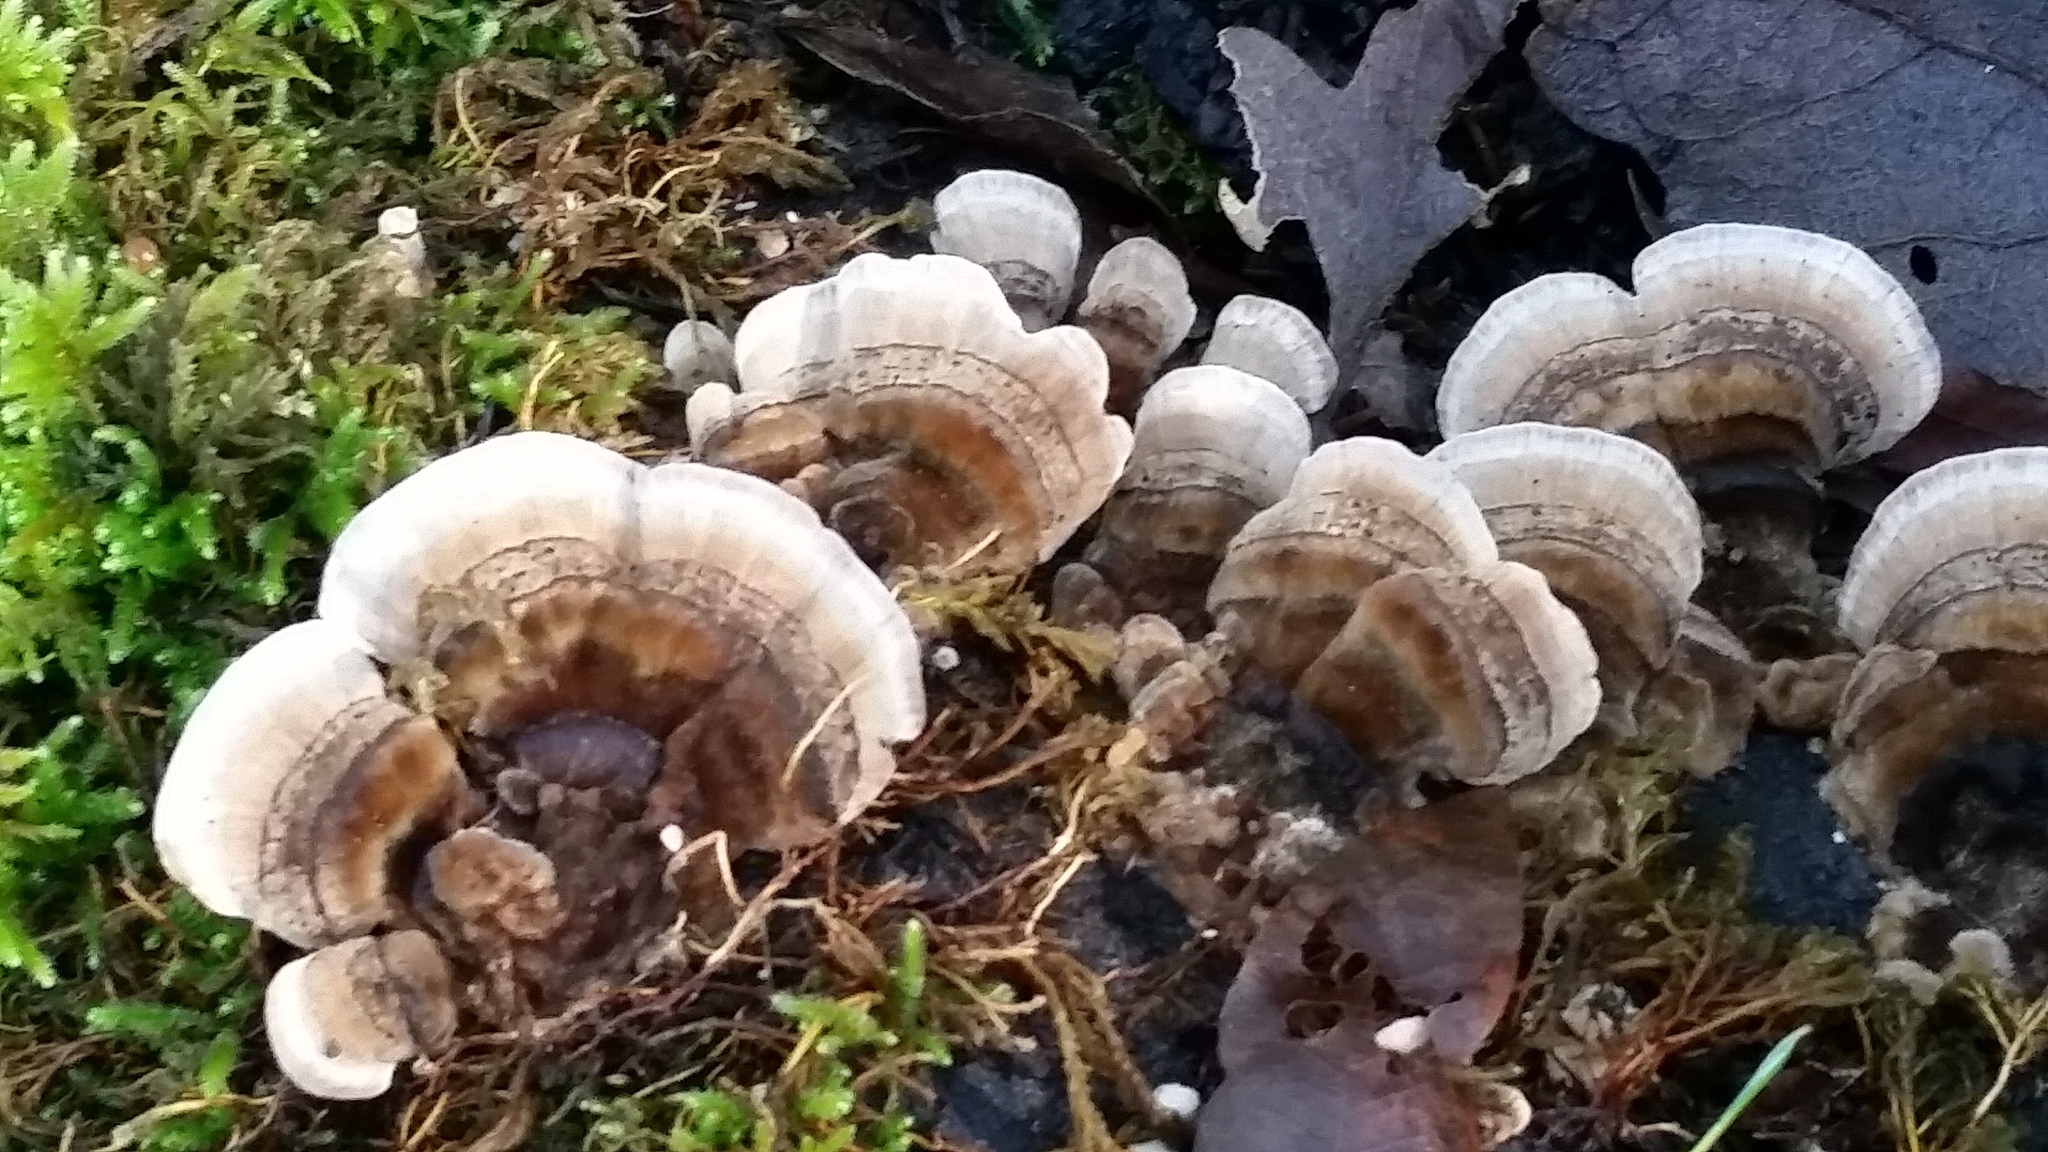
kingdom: Fungi
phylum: Basidiomycota
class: Agaricomycetes
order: Polyporales
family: Polyporaceae
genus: Trametes
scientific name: Trametes versicolor
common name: Turkeytail
